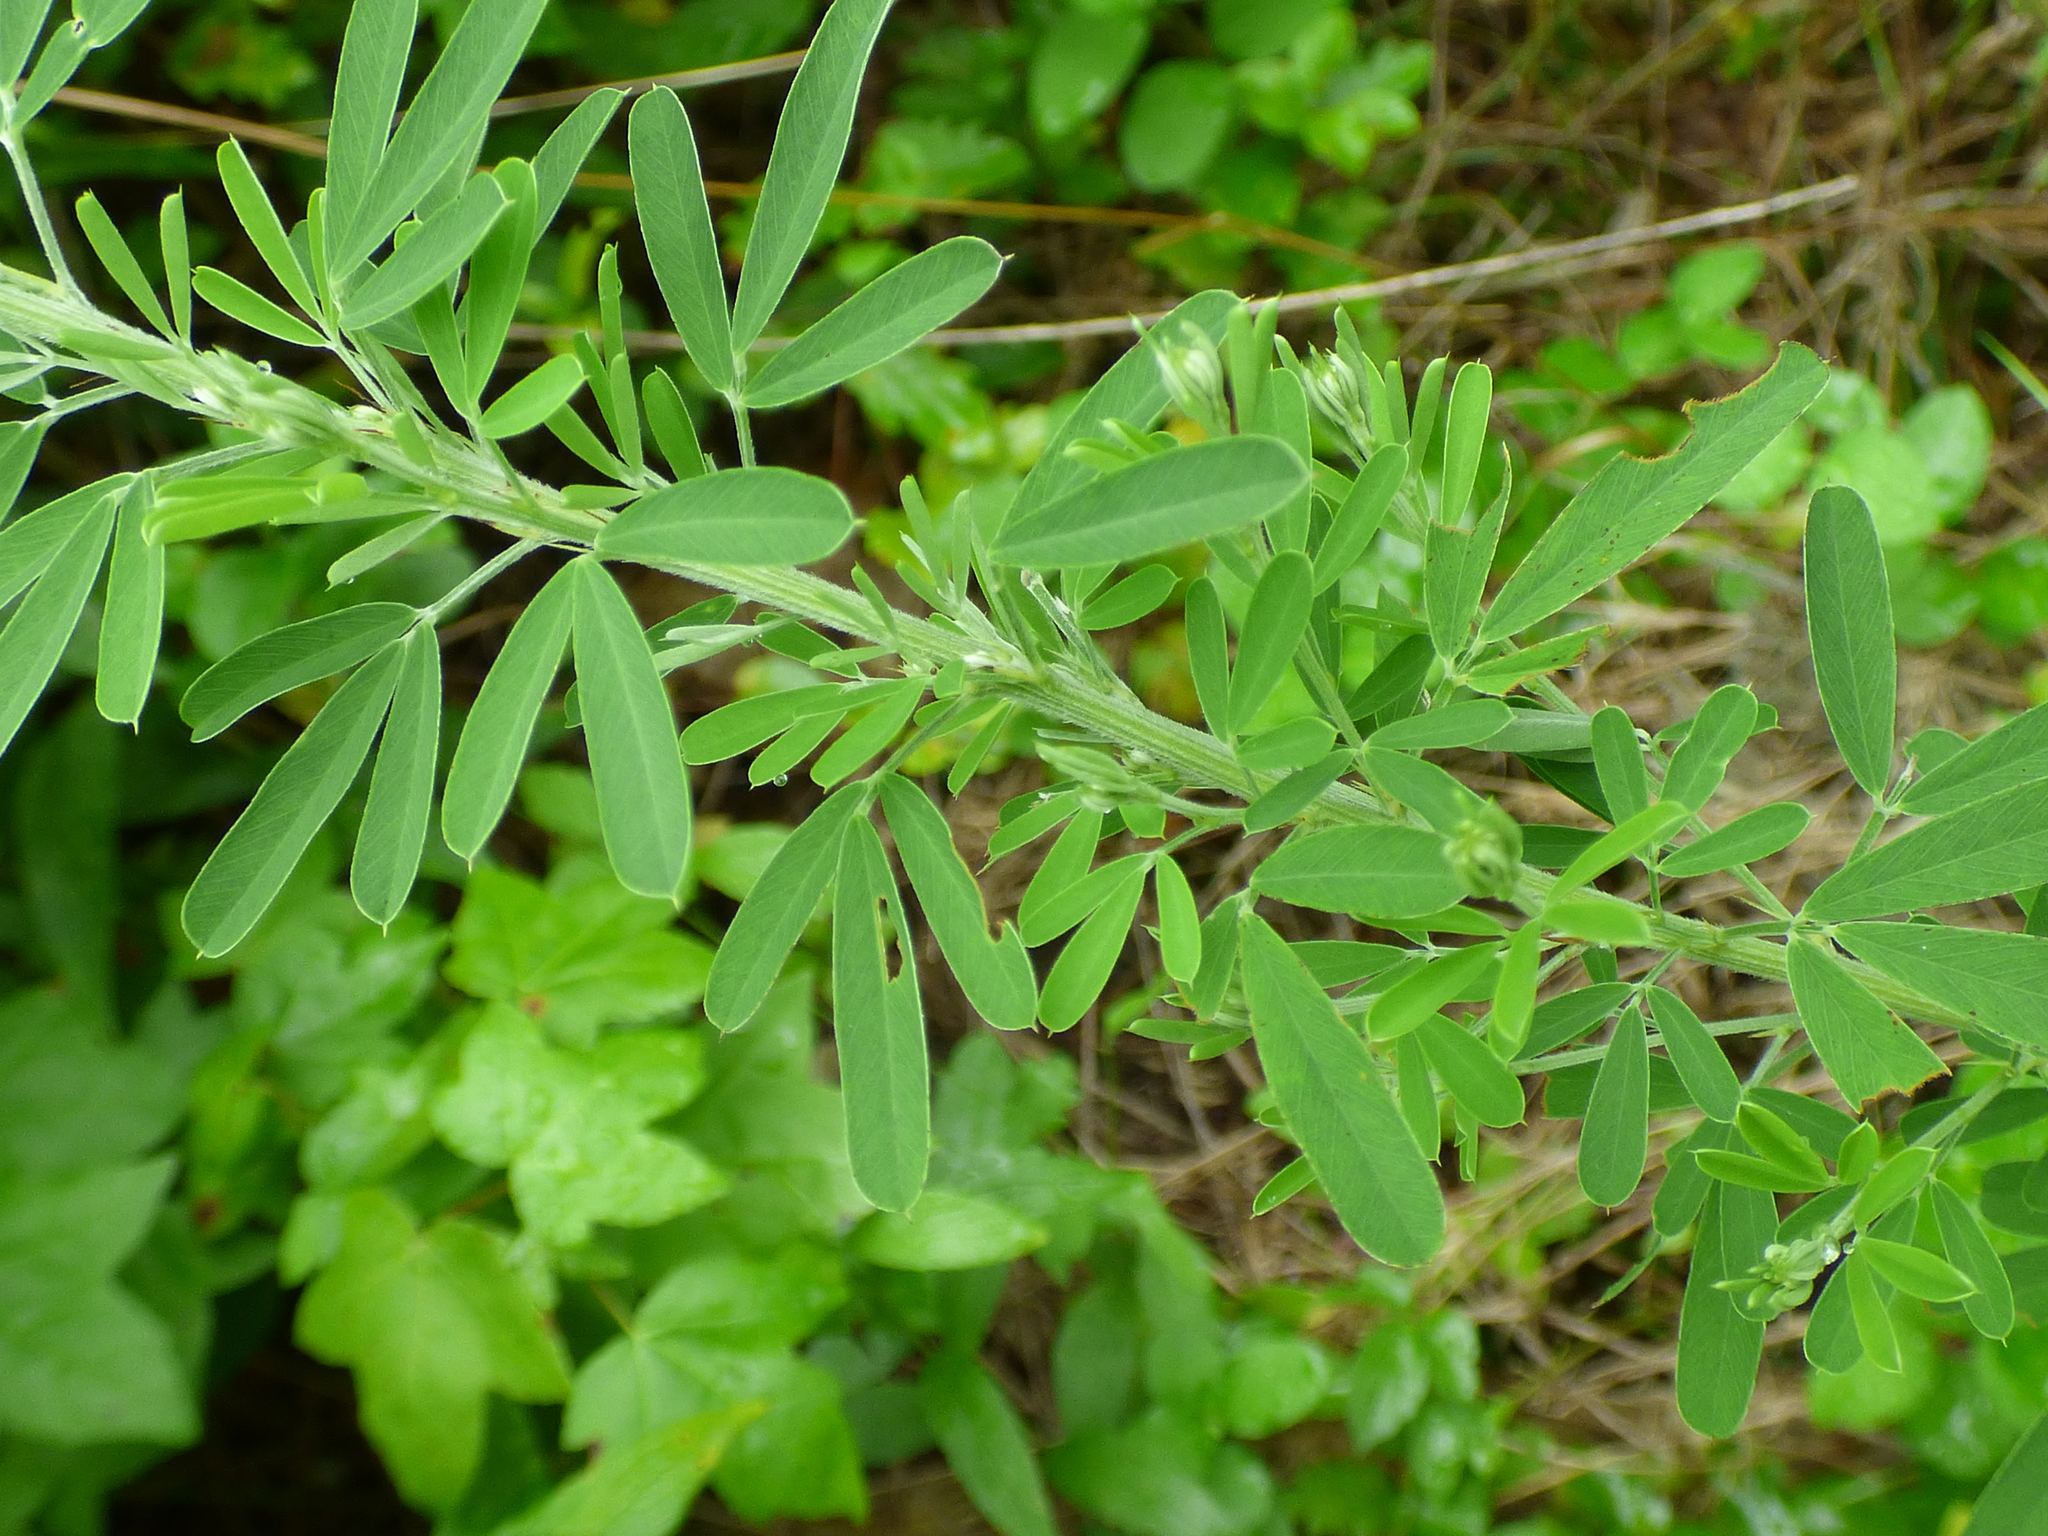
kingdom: Plantae
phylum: Tracheophyta
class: Magnoliopsida
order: Fabales
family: Fabaceae
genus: Lespedeza
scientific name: Lespedeza cuneata
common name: Chinese bush-clover
